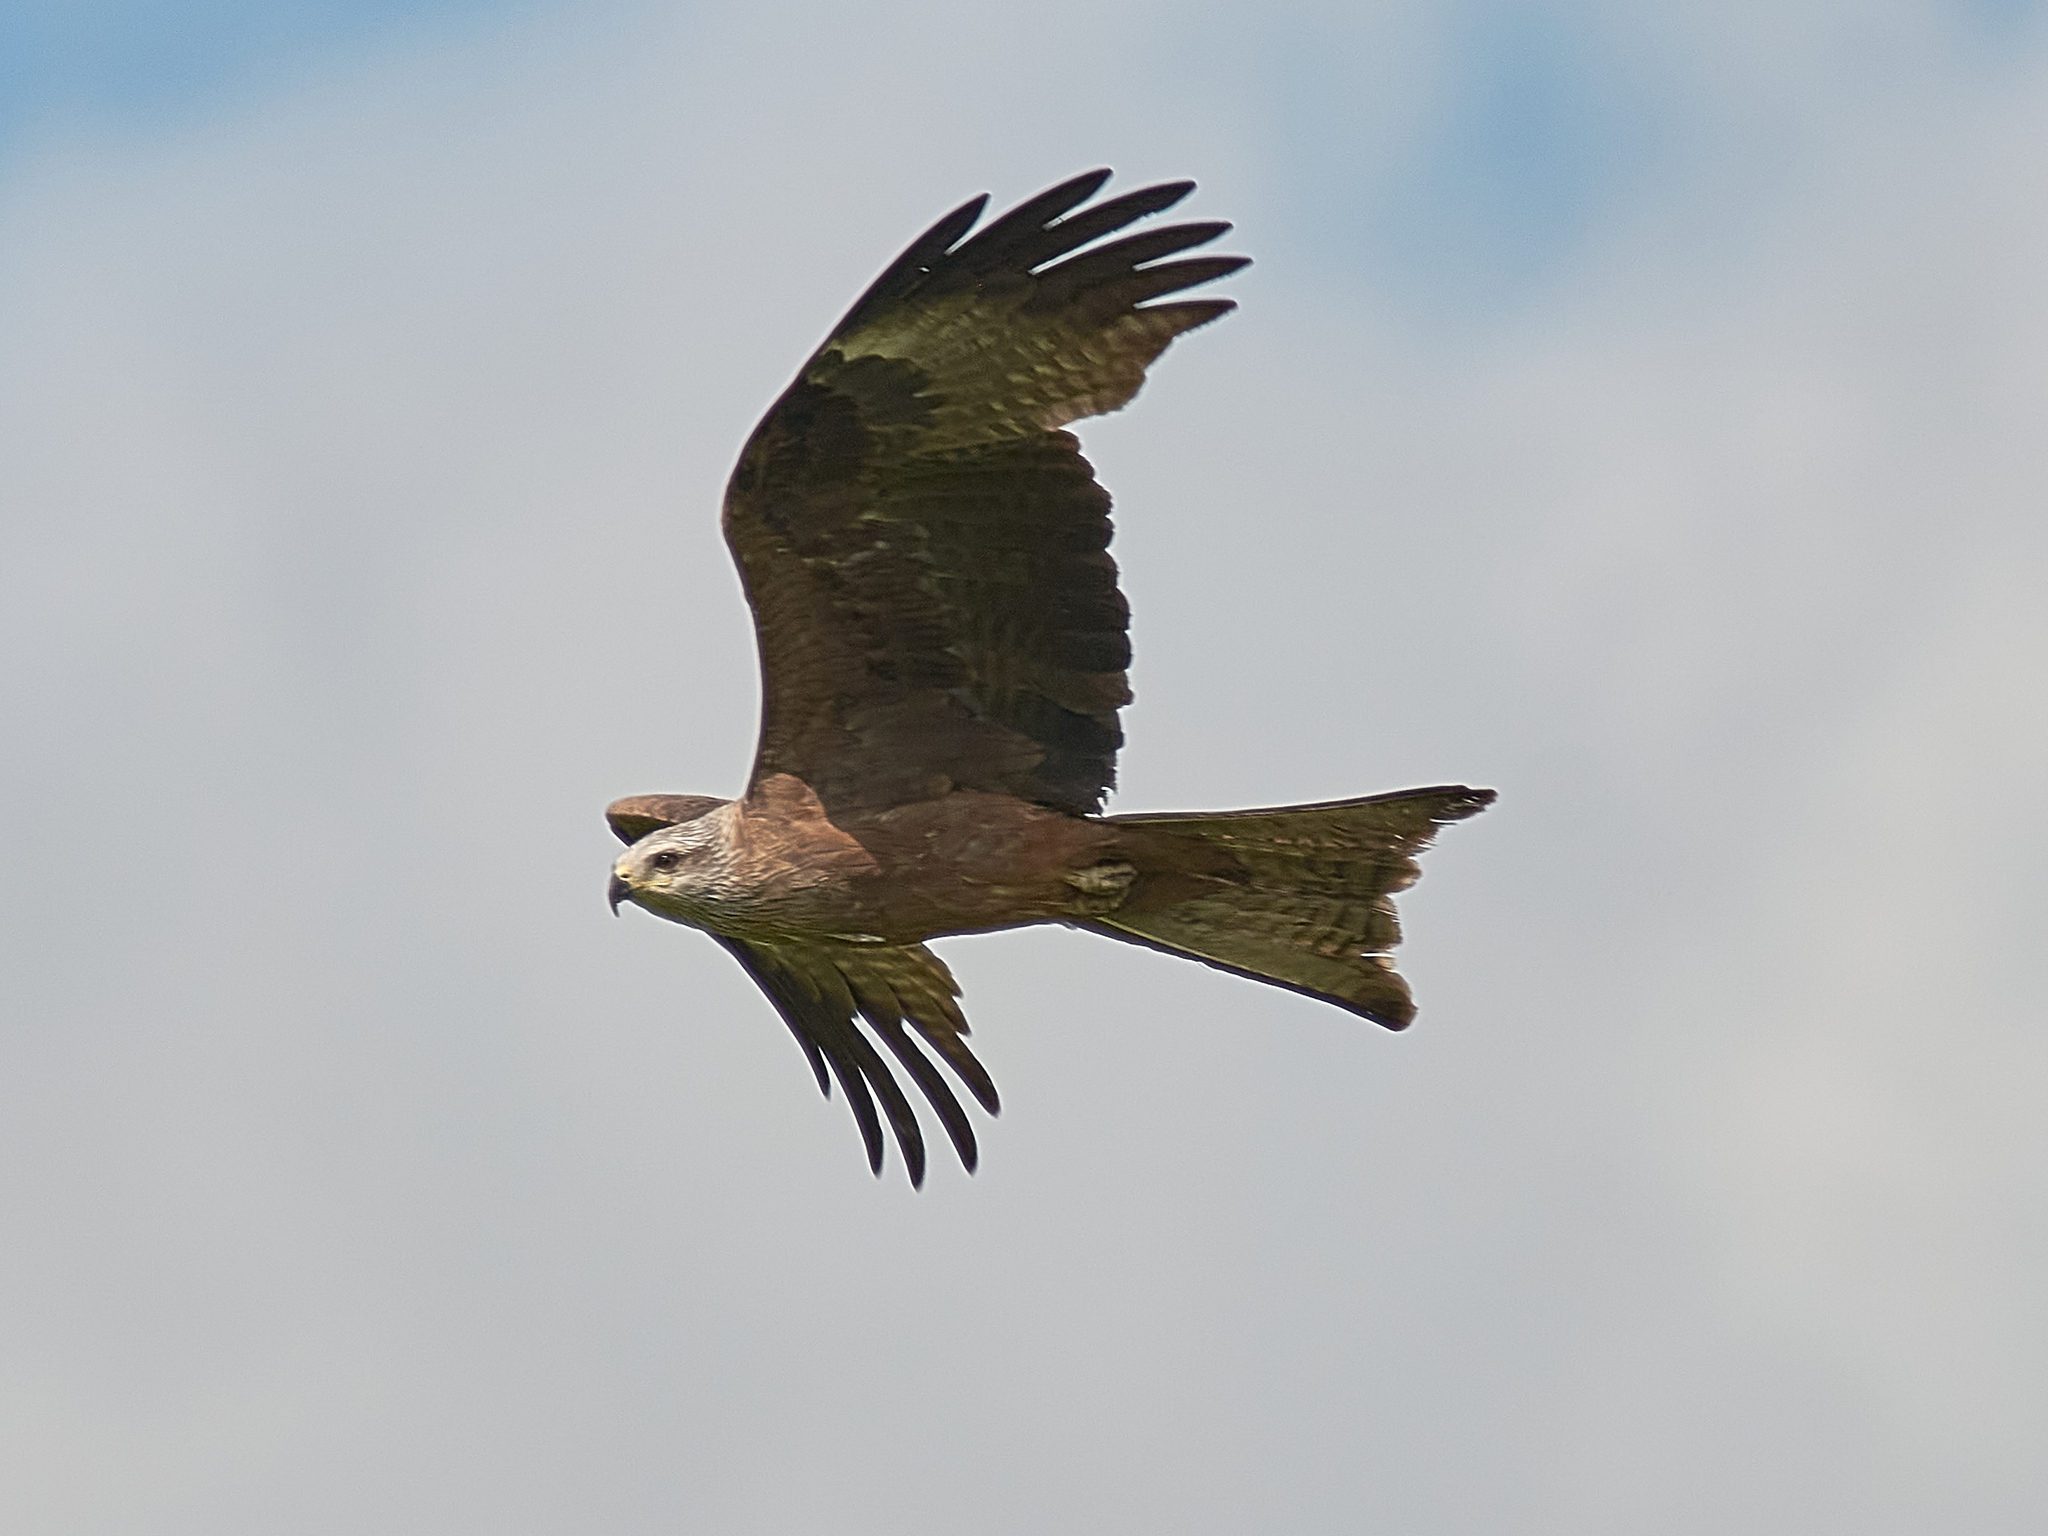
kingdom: Animalia
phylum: Chordata
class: Aves
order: Accipitriformes
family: Accipitridae
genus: Milvus
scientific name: Milvus migrans
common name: Black kite
